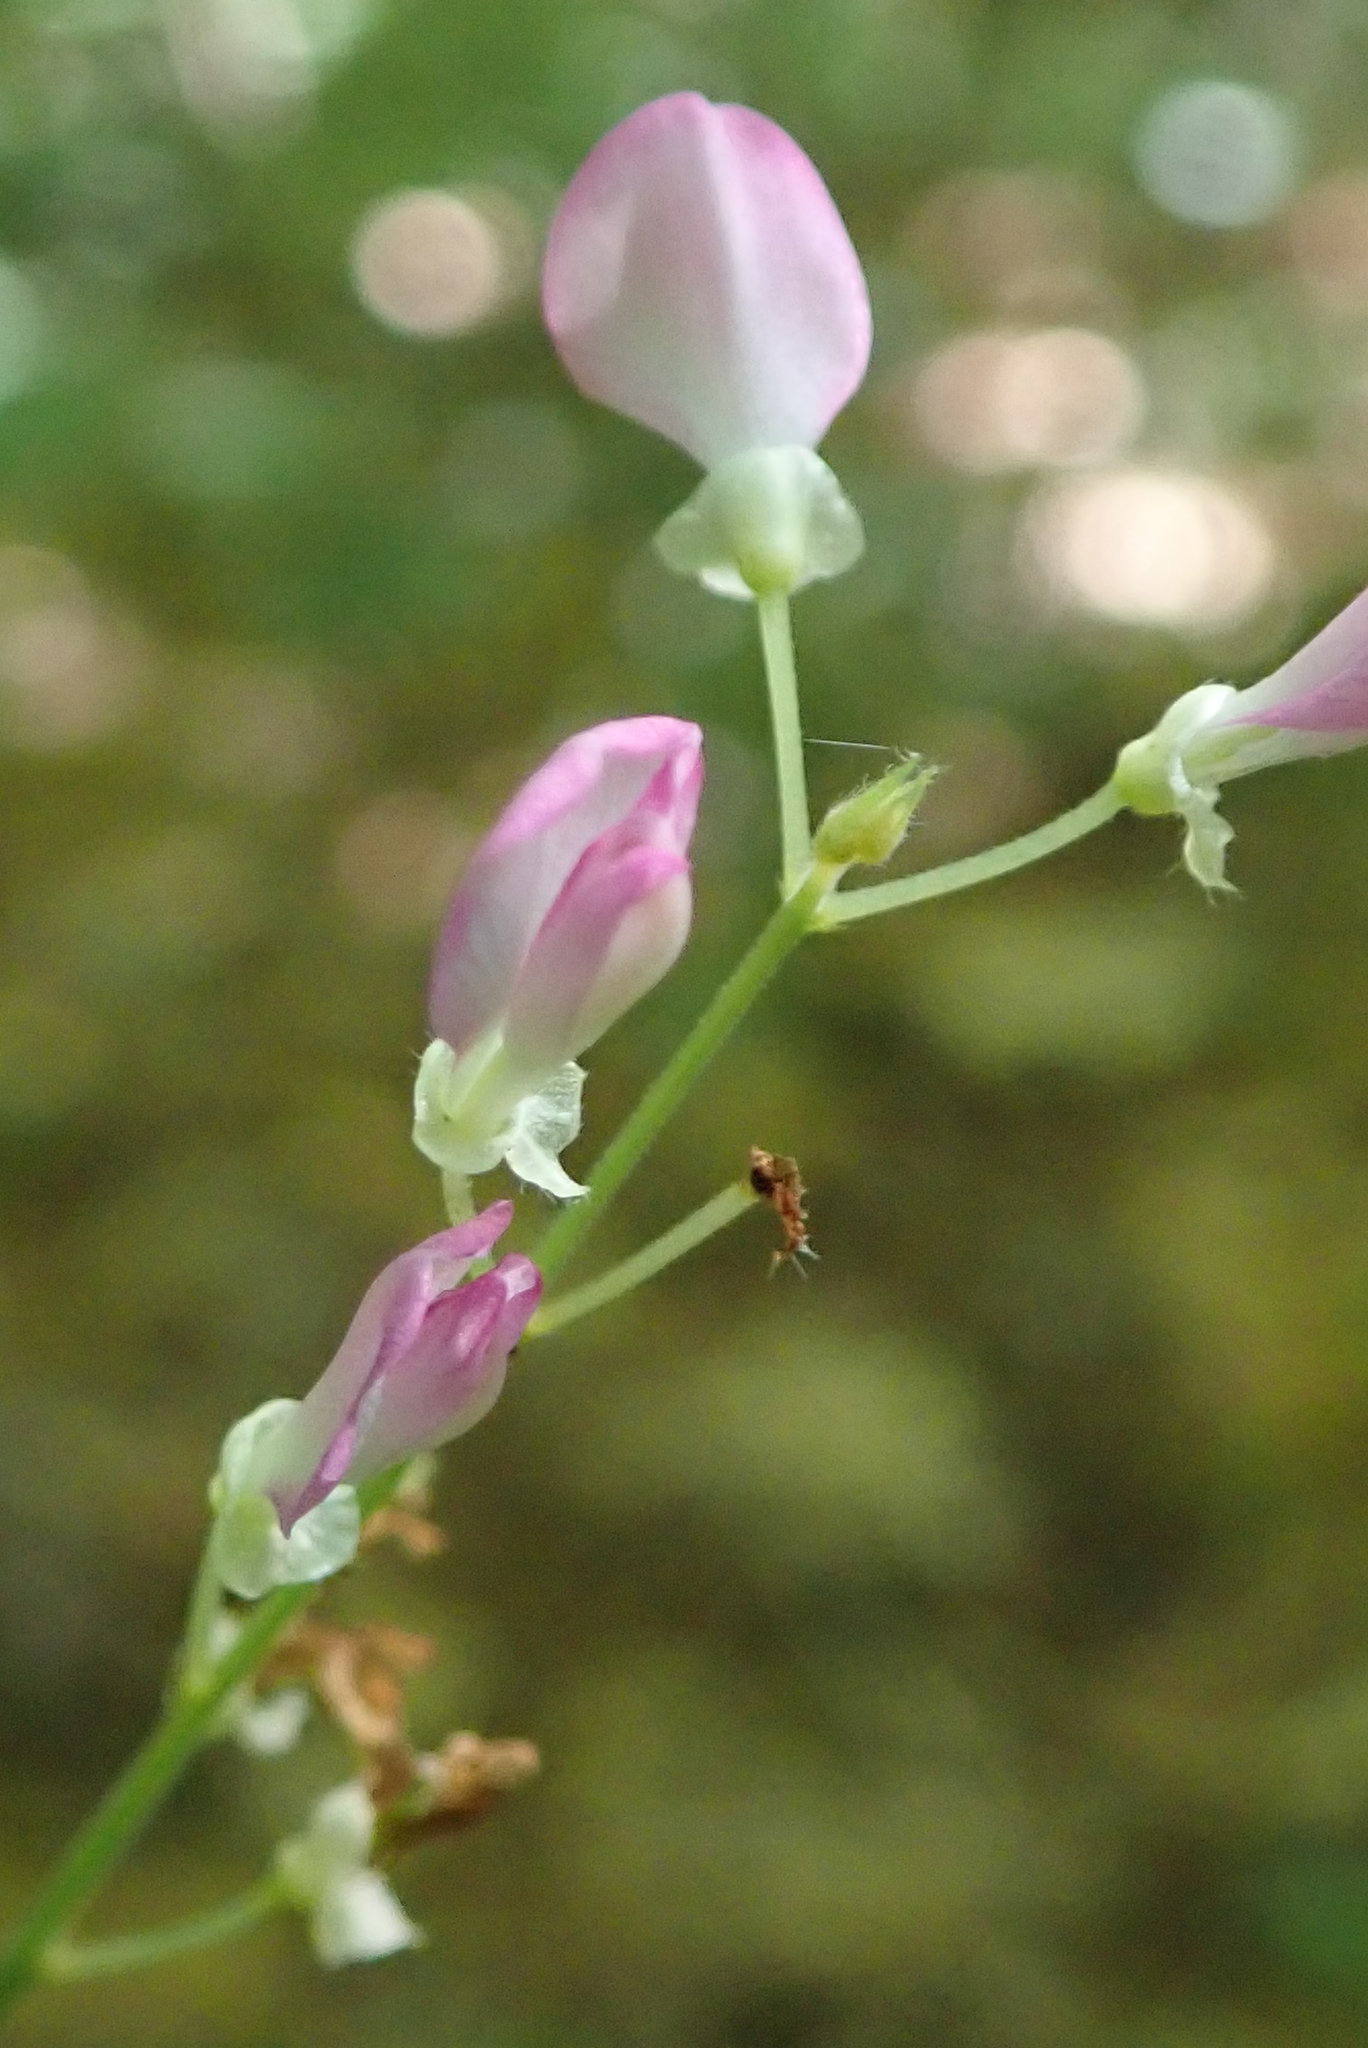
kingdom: Plantae
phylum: Tracheophyta
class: Magnoliopsida
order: Fabales
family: Fabaceae
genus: Hylodesmum
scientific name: Hylodesmum glutinosum
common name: Clustered-leaved tick-trefoil
